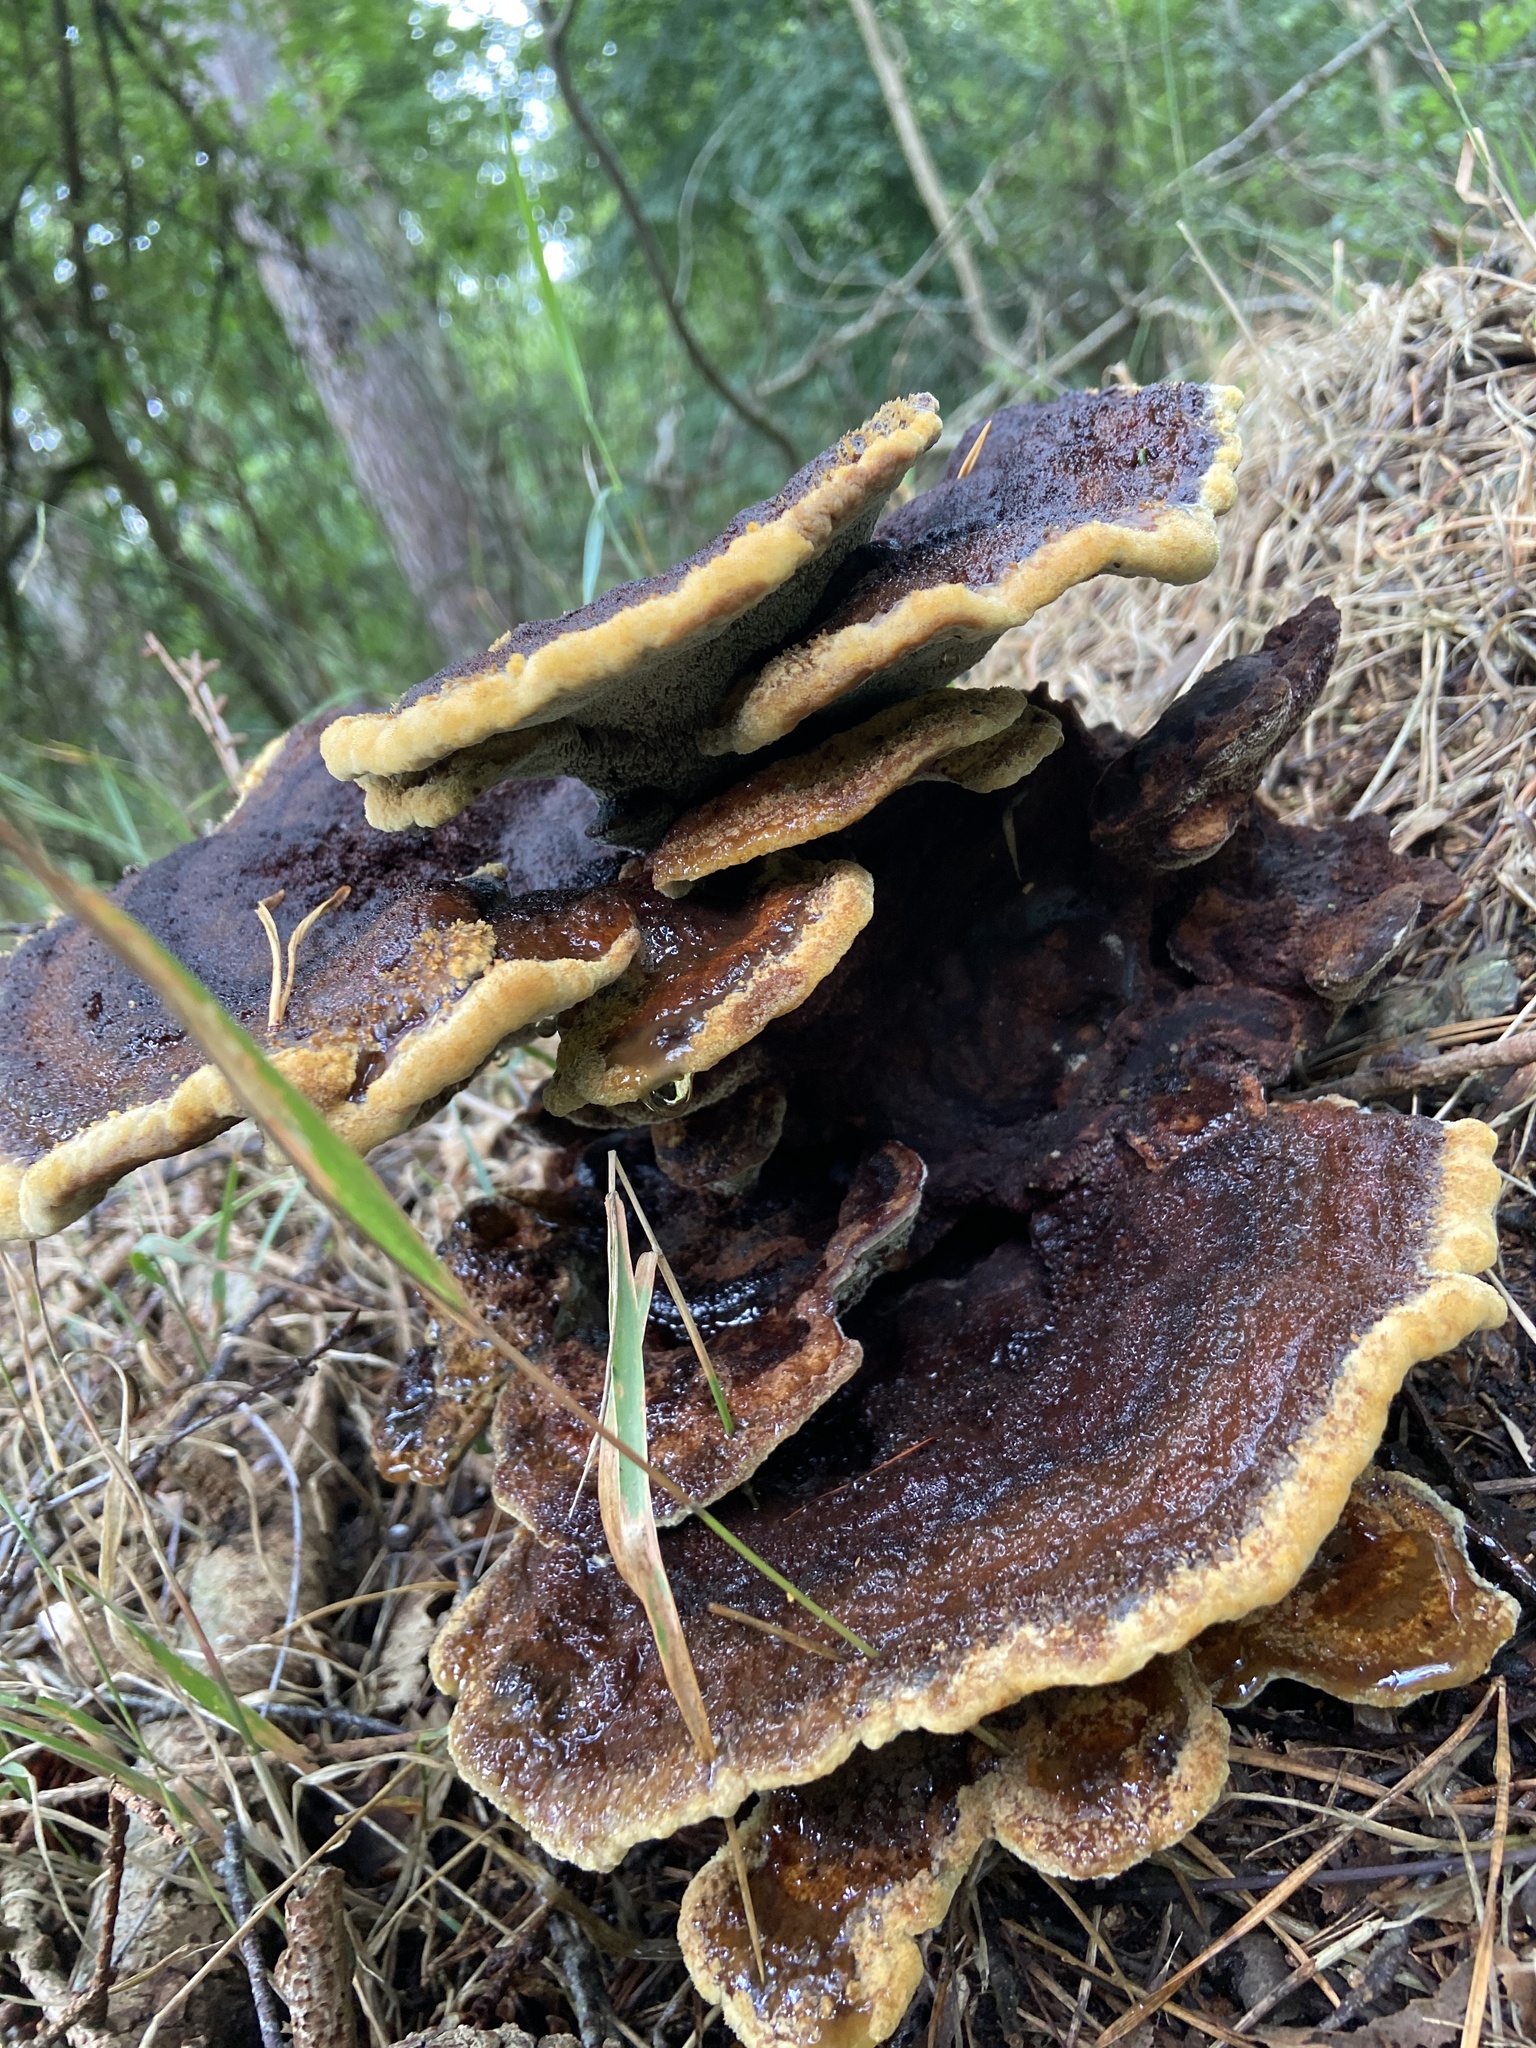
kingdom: Fungi
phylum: Basidiomycota
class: Agaricomycetes
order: Polyporales
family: Laetiporaceae
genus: Phaeolus
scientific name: Phaeolus schweinitzii
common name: Dyer's mazegill
